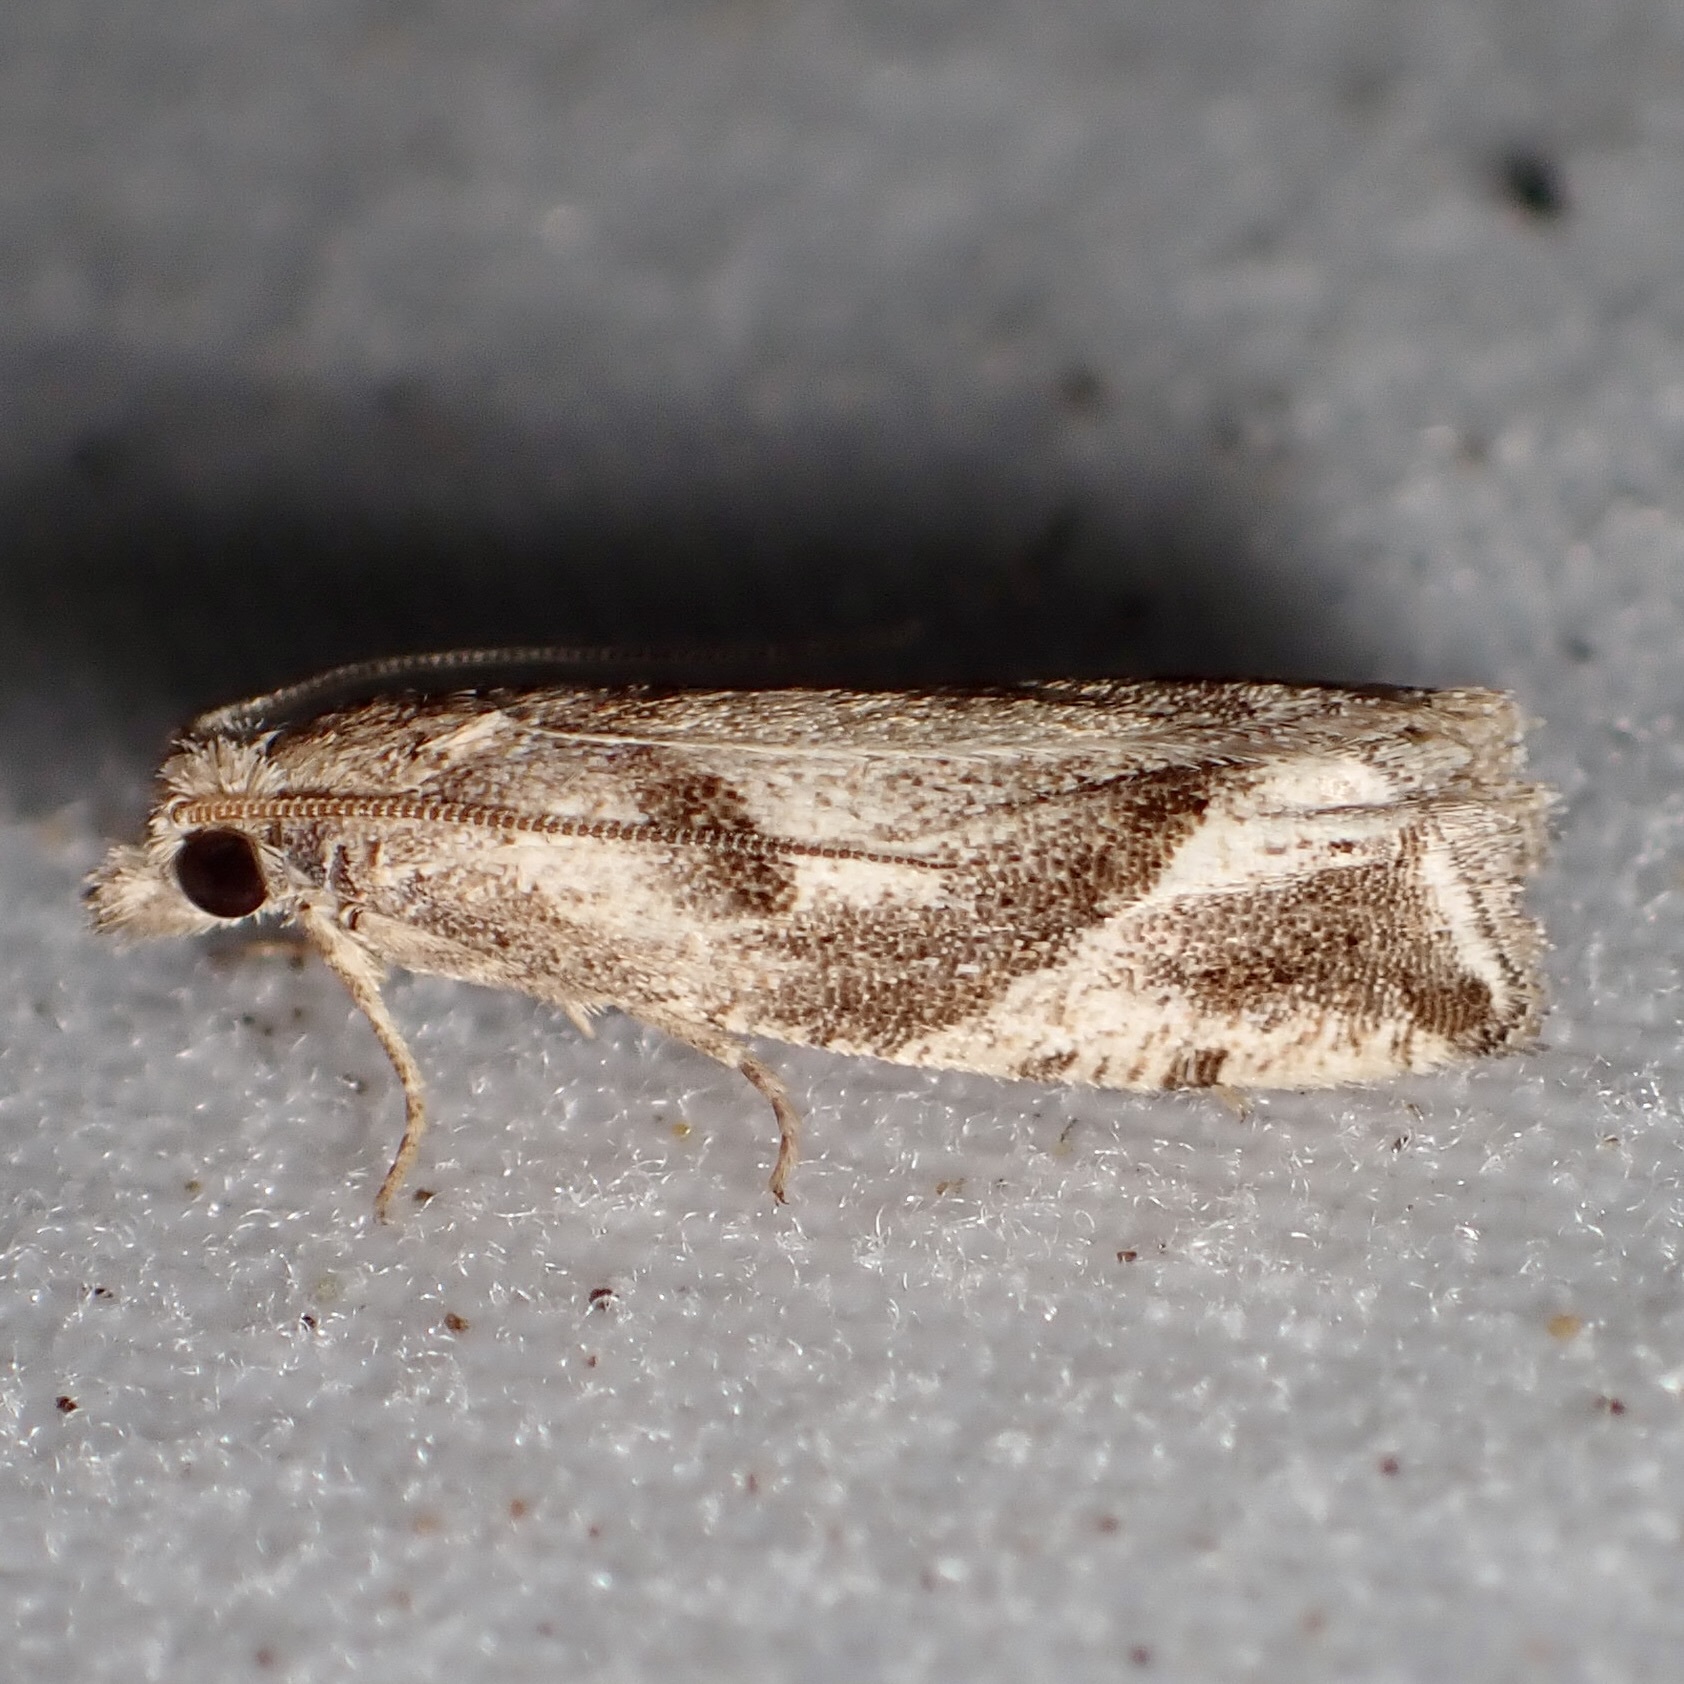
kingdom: Animalia
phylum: Arthropoda
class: Insecta
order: Lepidoptera
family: Tortricidae
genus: Pelochrista
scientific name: Pelochrista corosana
